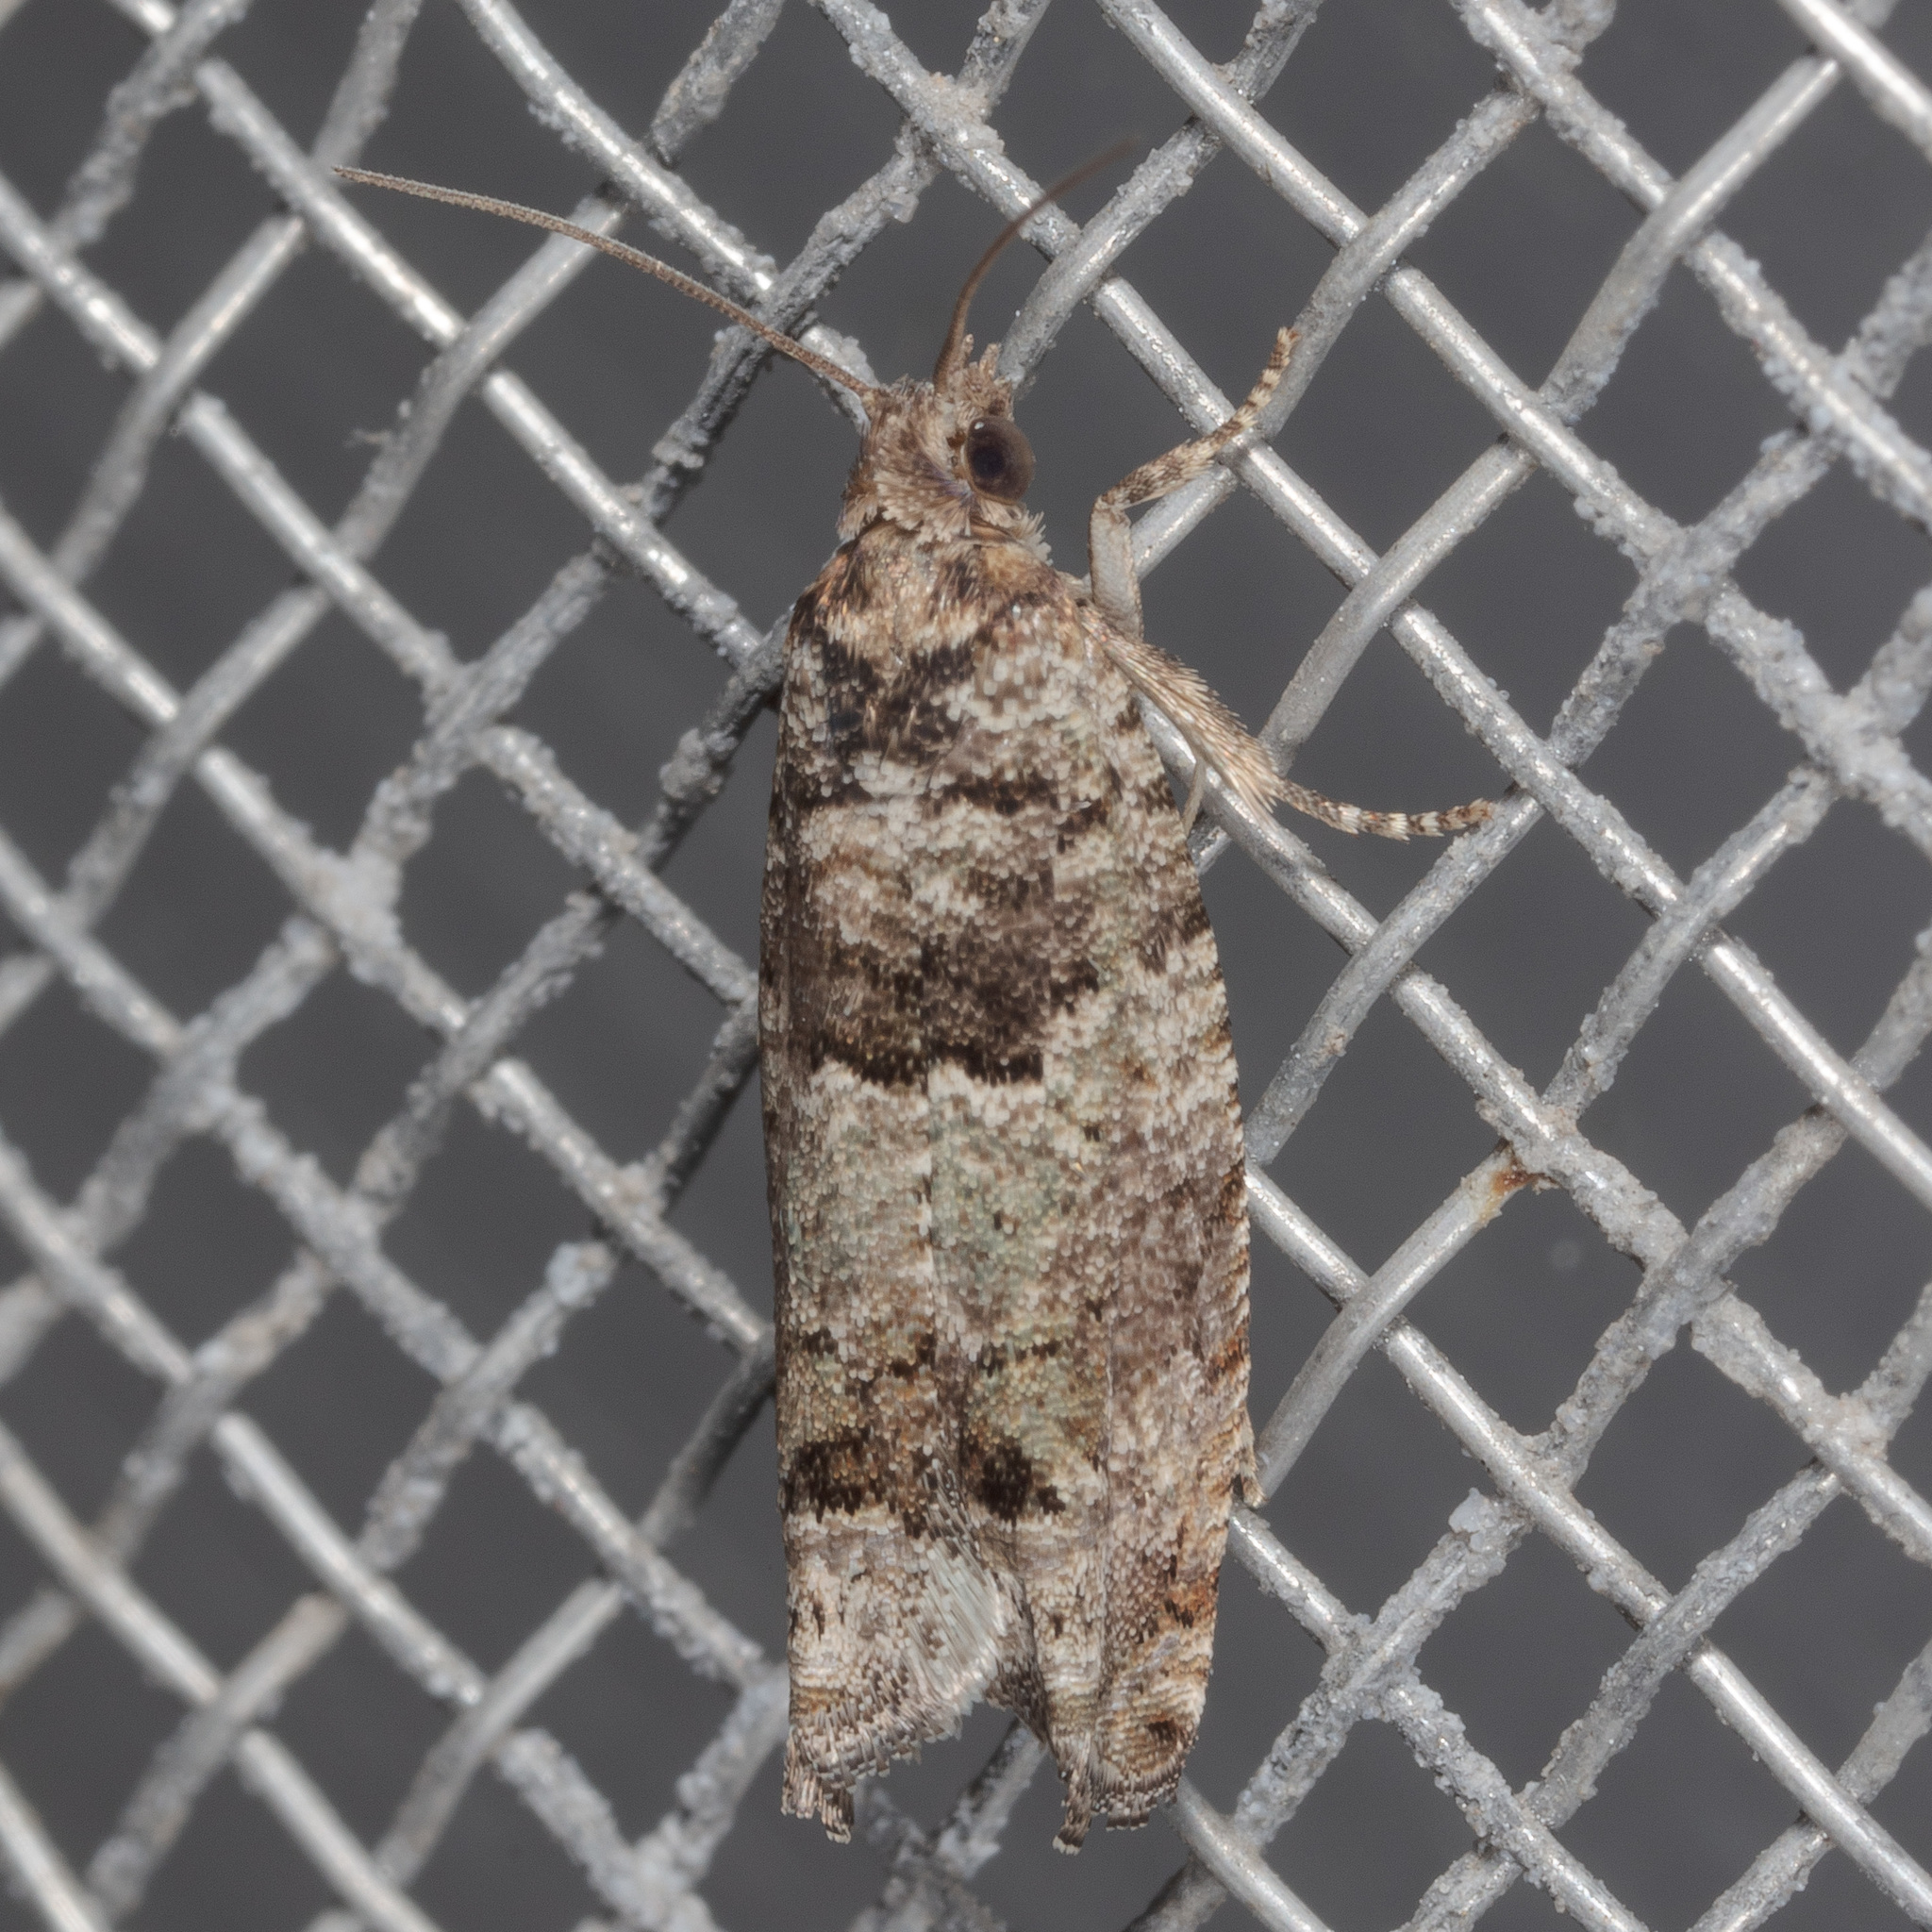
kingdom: Animalia
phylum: Arthropoda
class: Insecta
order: Lepidoptera
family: Tortricidae
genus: Pseudexentera
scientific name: Pseudexentera knudsoni
